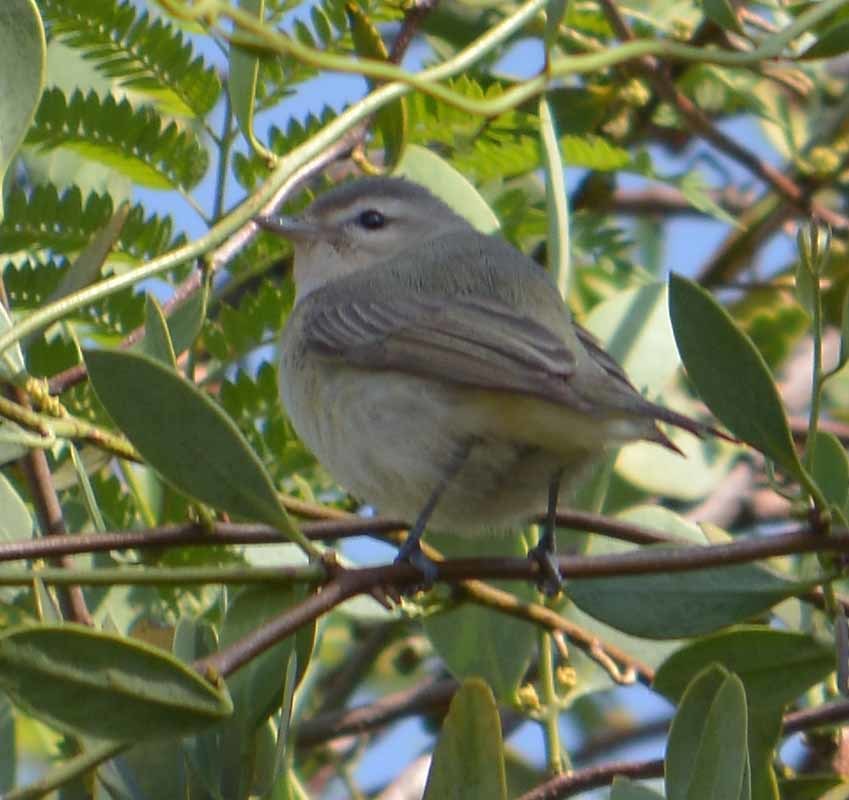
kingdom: Animalia
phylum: Chordata
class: Aves
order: Passeriformes
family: Vireonidae
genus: Vireo
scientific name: Vireo gilvus
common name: Warbling vireo
